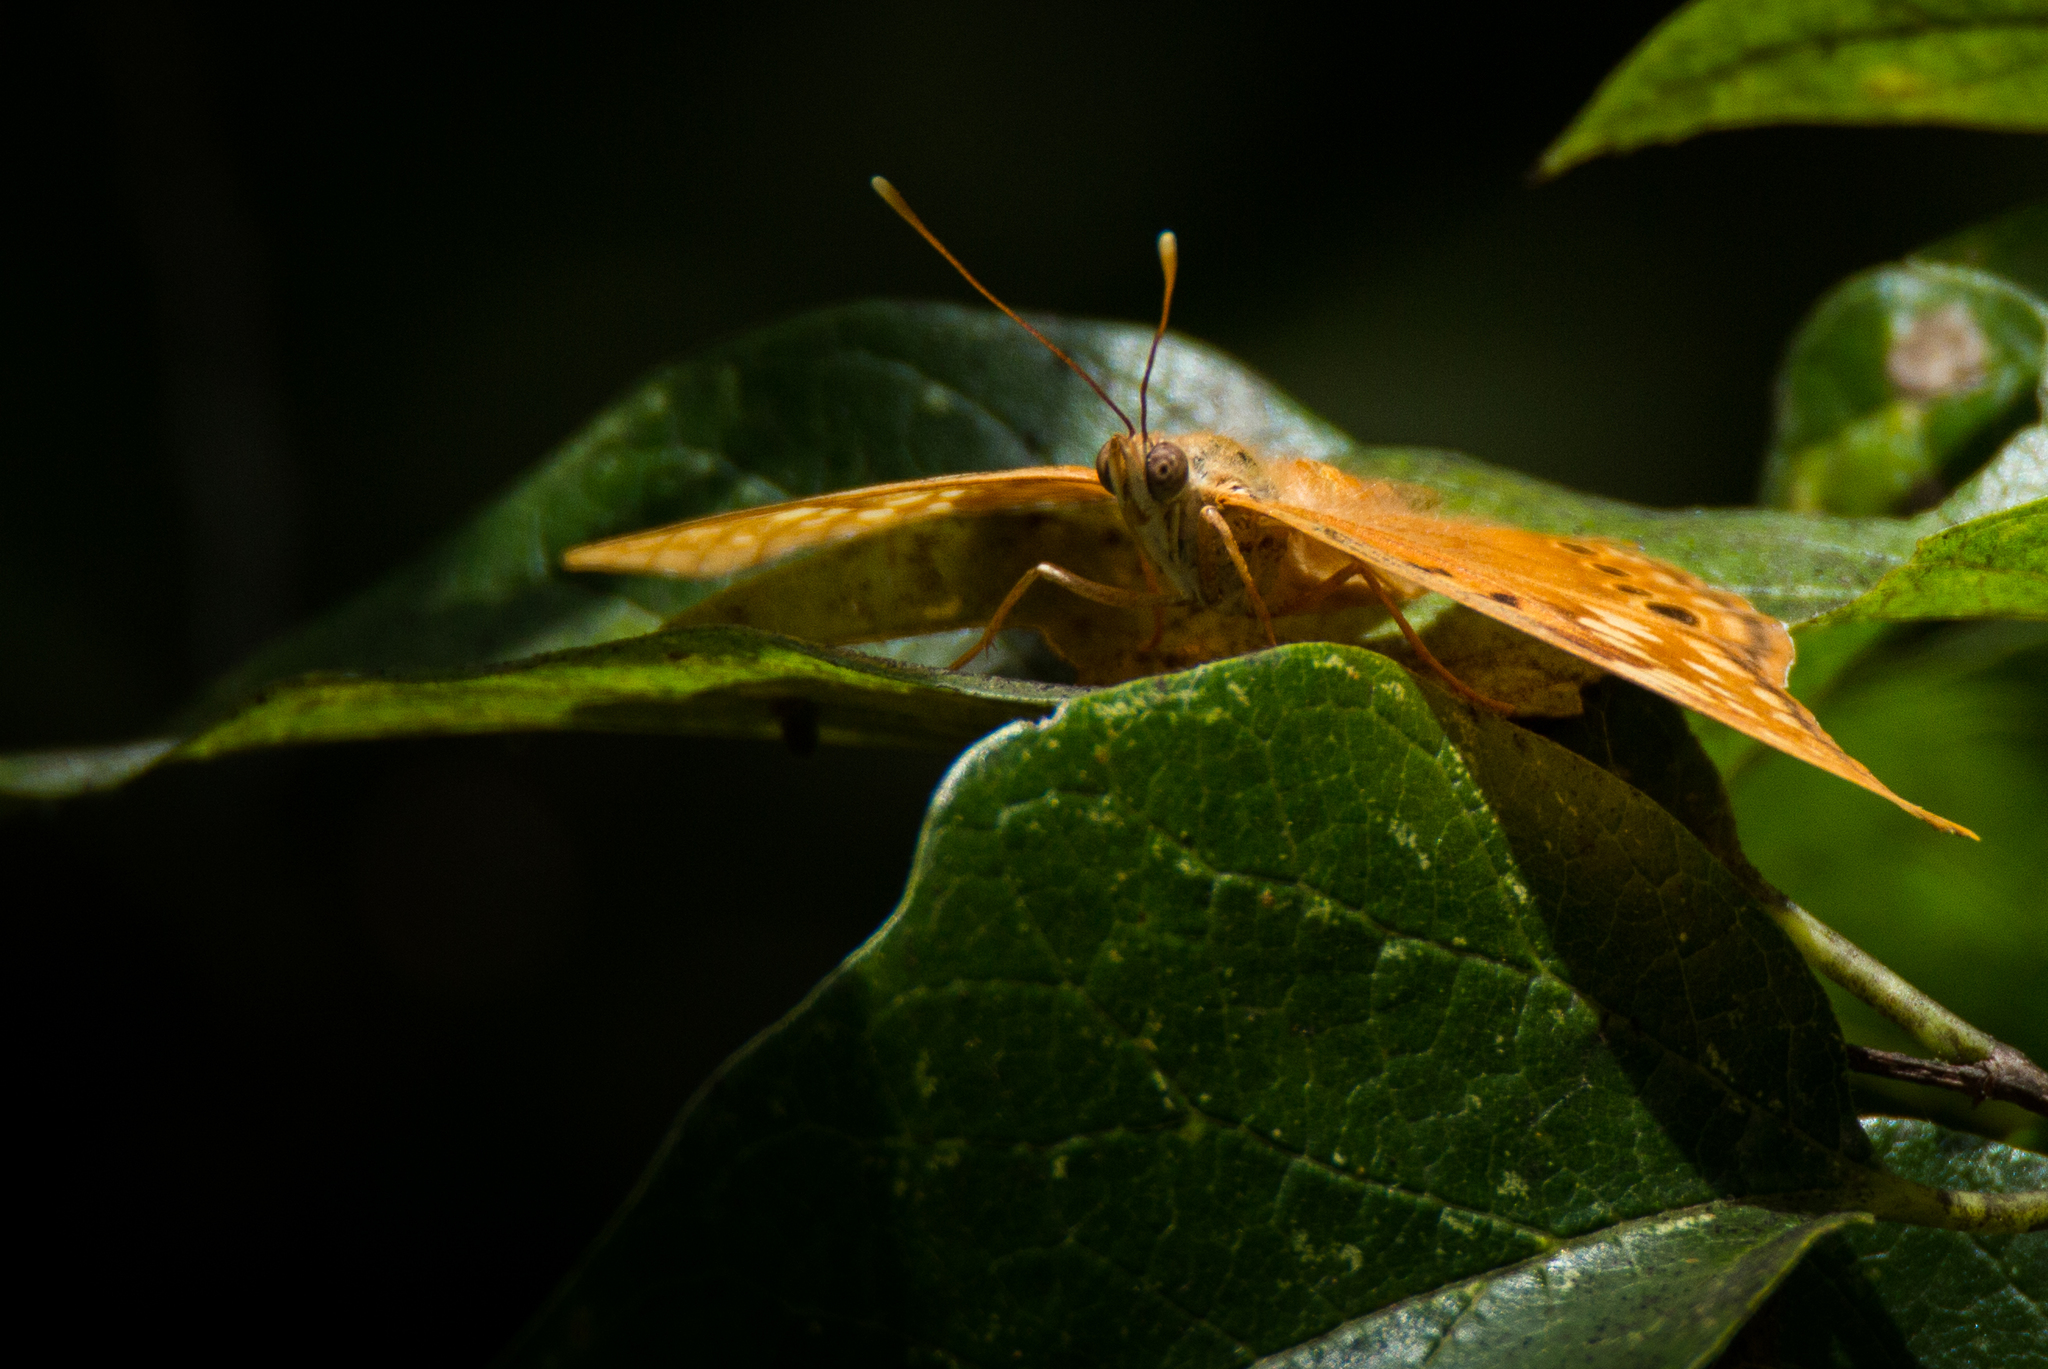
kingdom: Animalia
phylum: Arthropoda
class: Insecta
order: Lepidoptera
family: Nymphalidae
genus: Asterocampa
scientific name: Asterocampa clyton
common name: Tawny emperor
